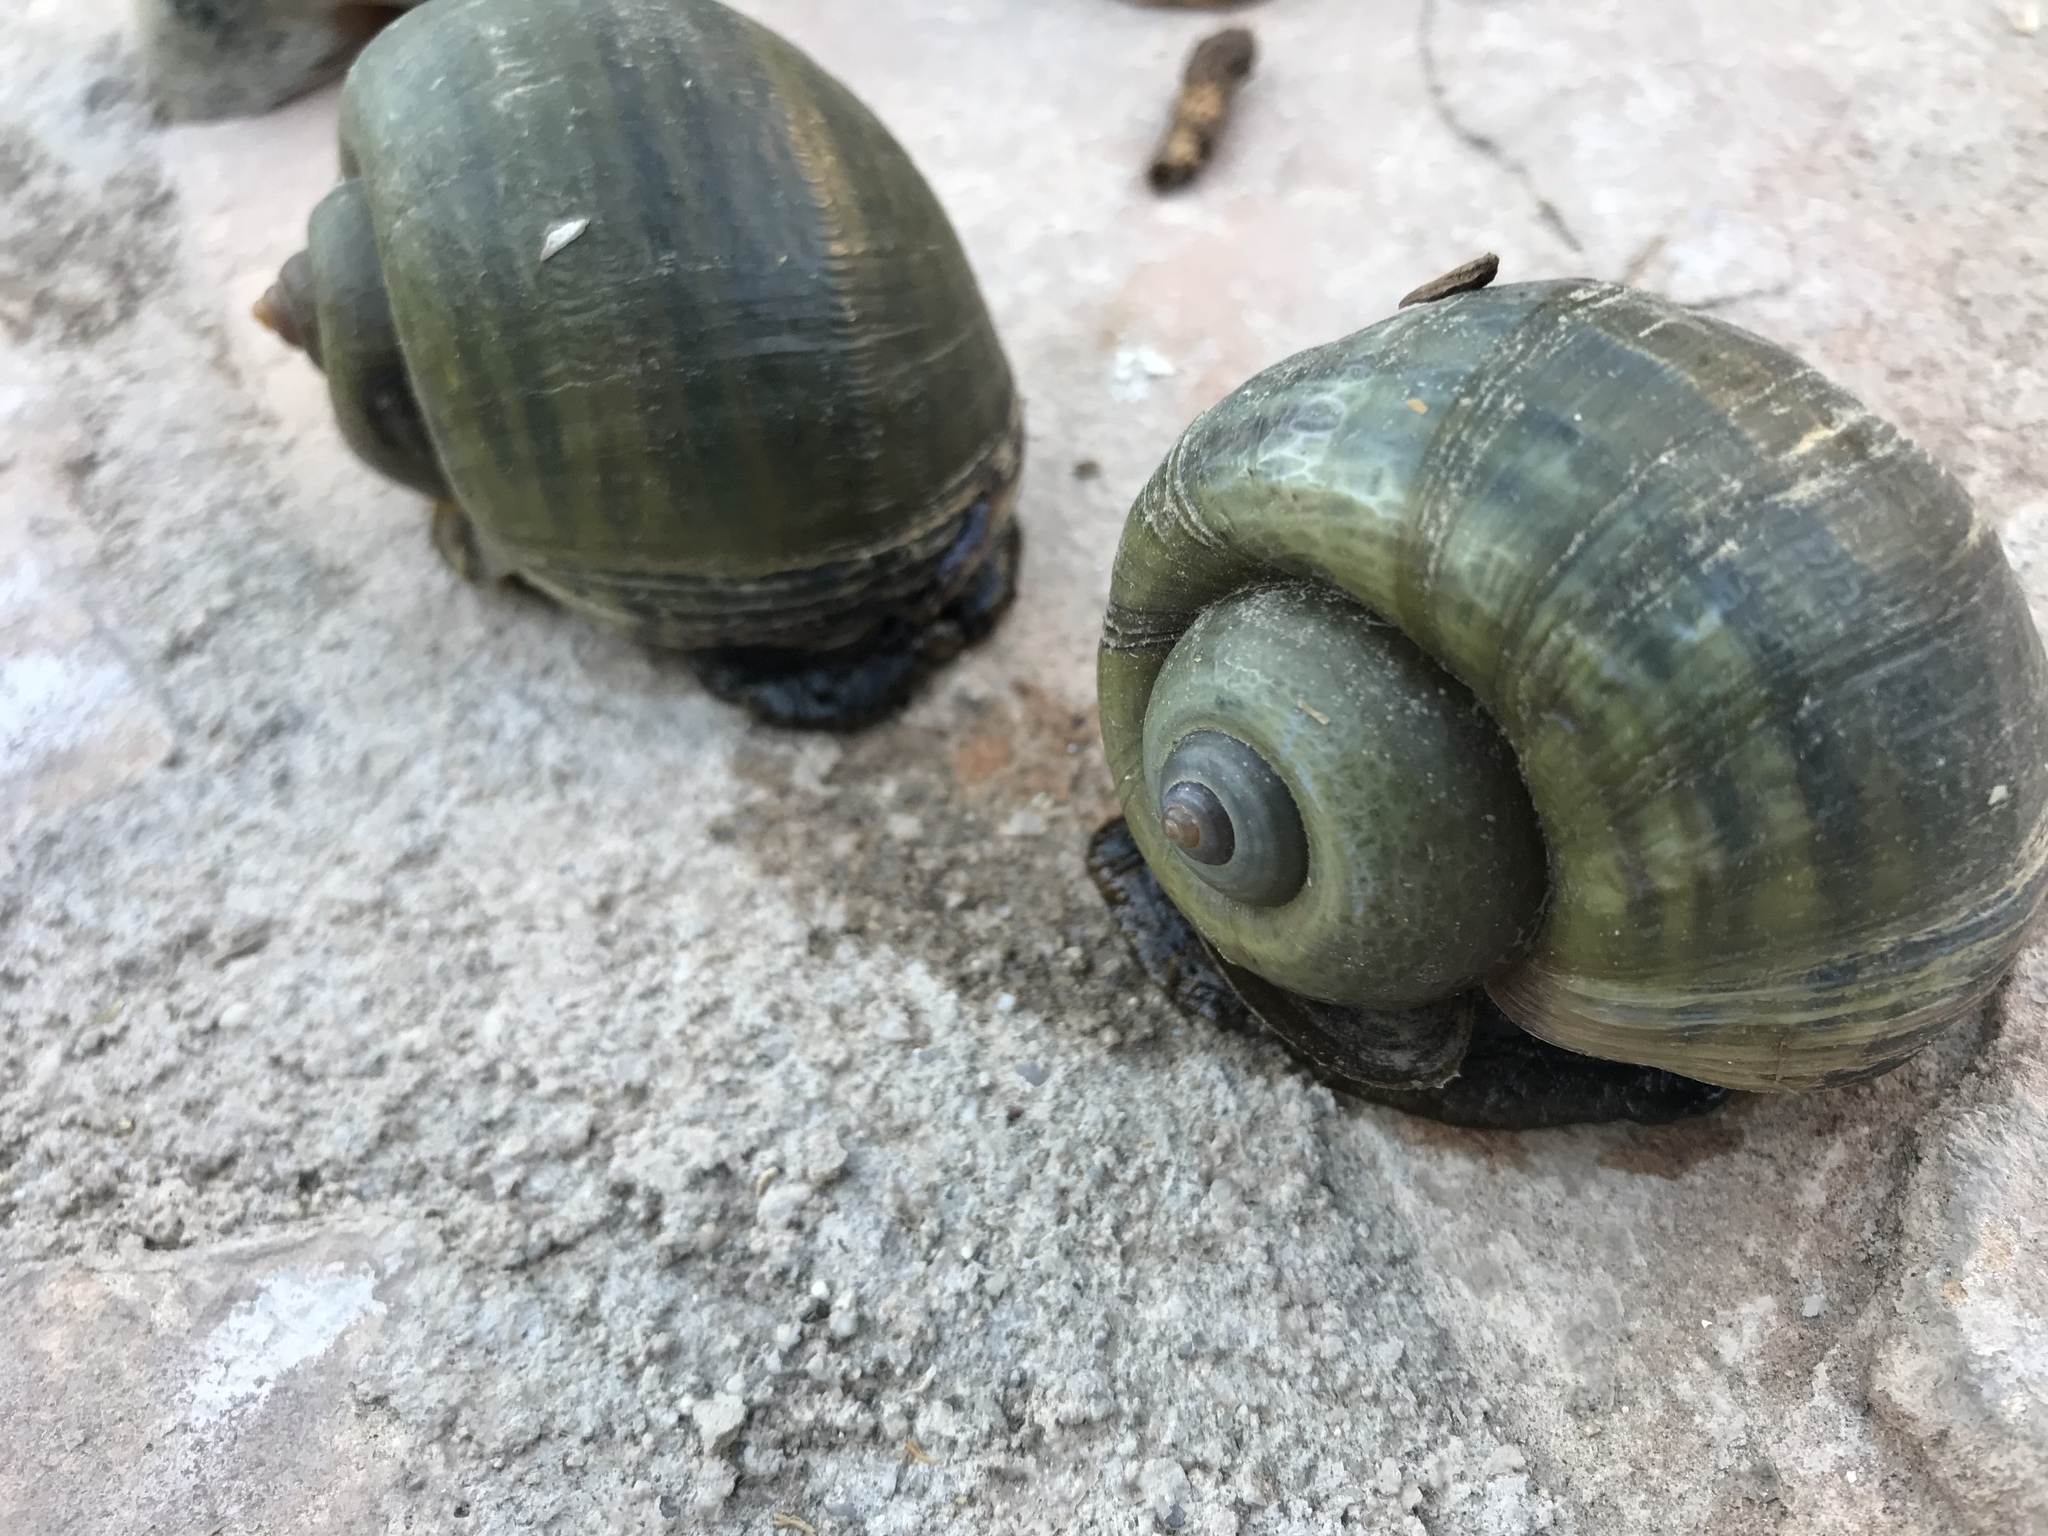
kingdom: Animalia
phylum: Mollusca
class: Gastropoda
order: Architaenioglossa
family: Ampullariidae
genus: Pomacea
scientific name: Pomacea canaliculata
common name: Channeled applesnail
